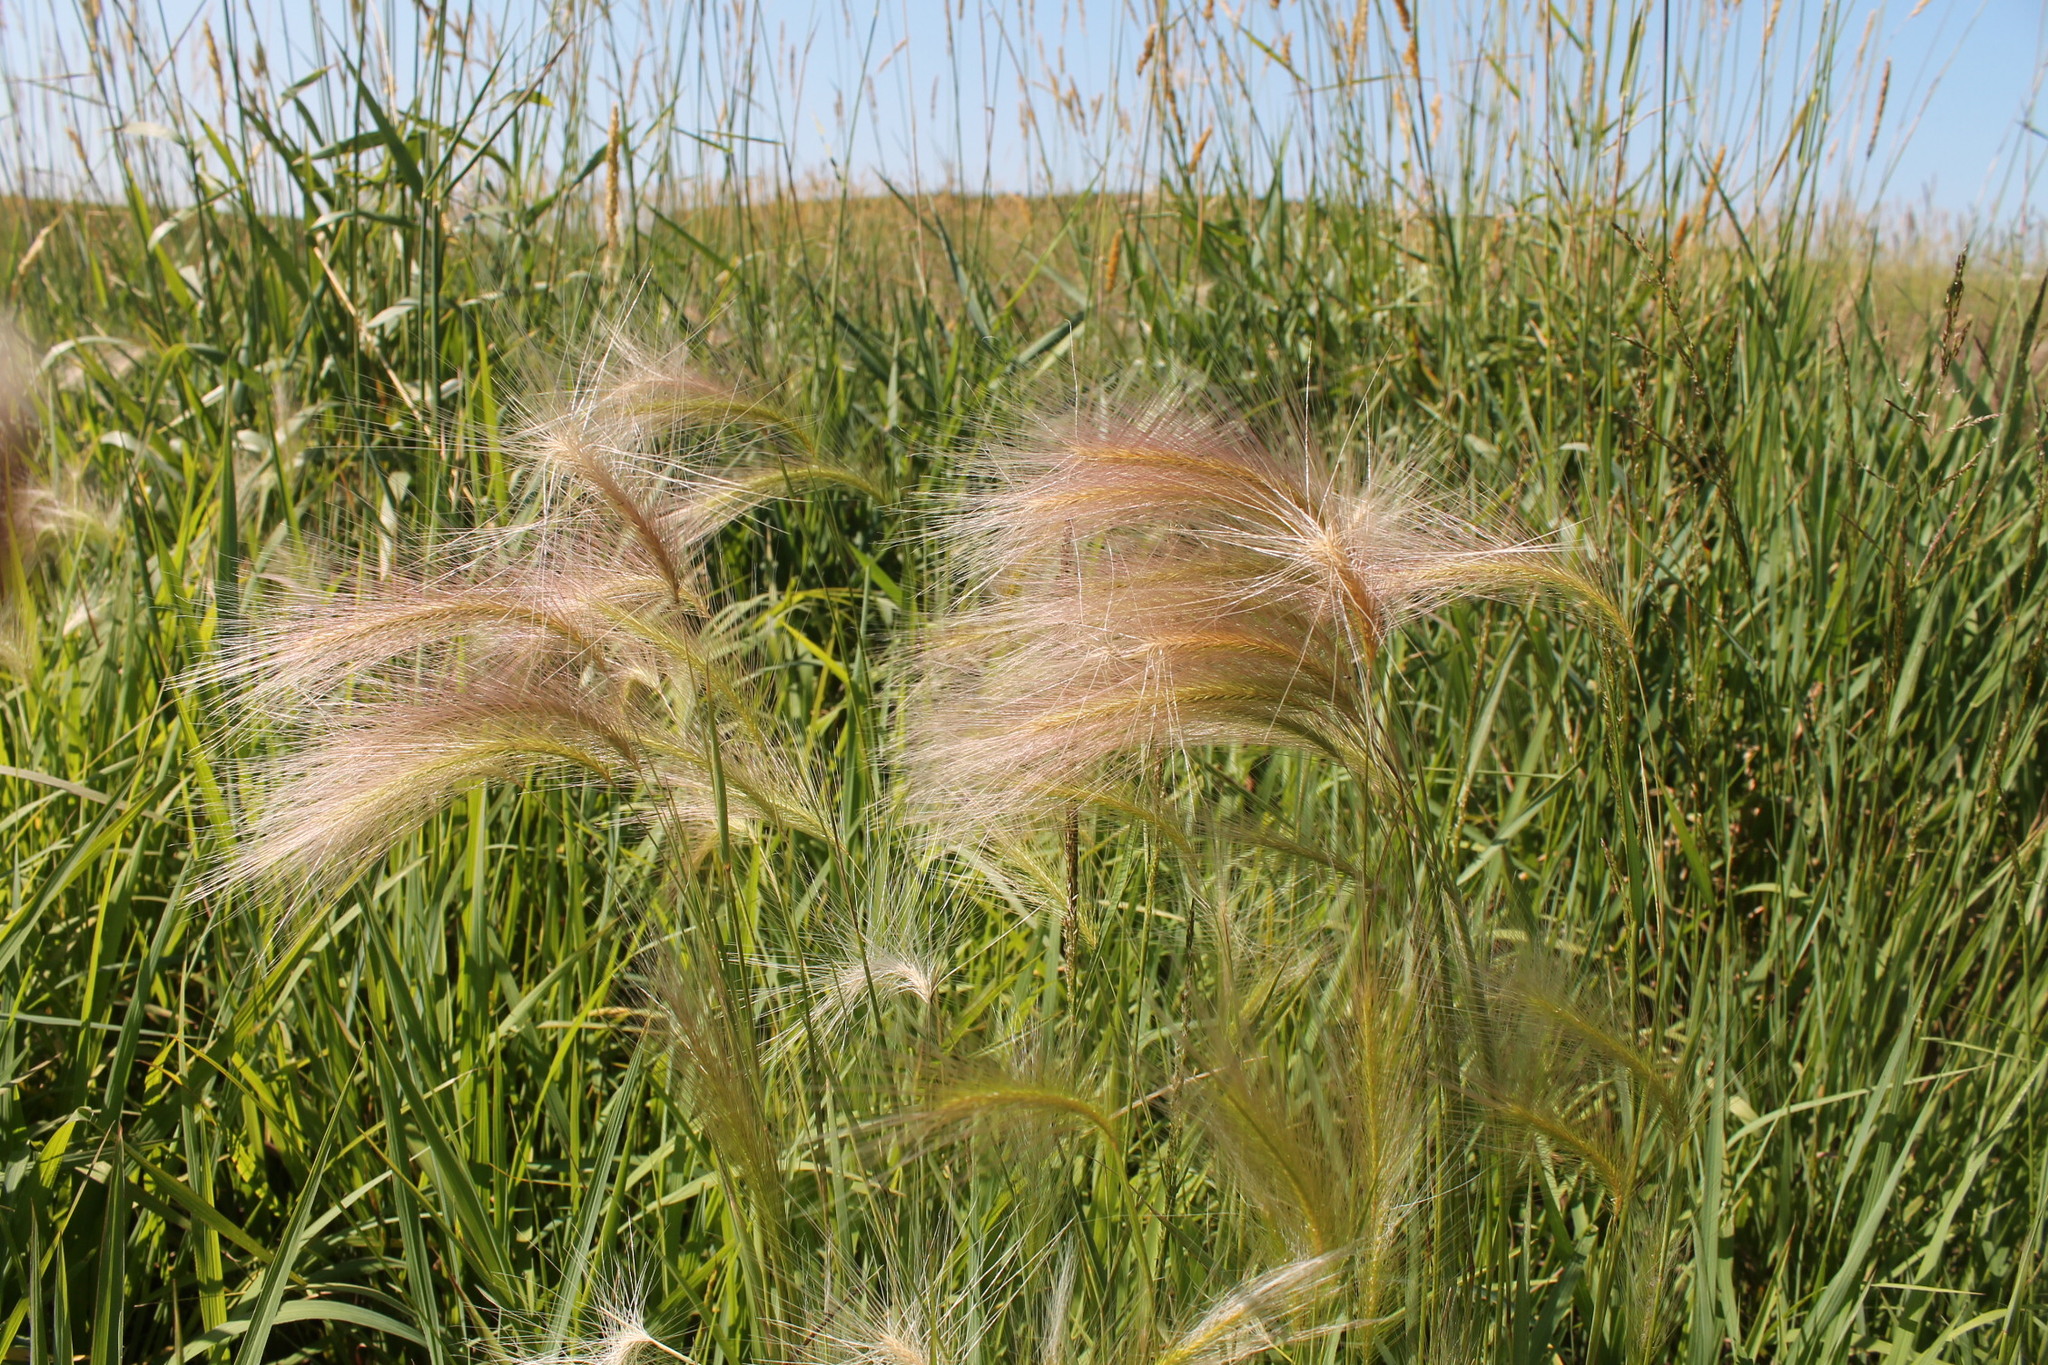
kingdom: Plantae
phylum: Tracheophyta
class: Liliopsida
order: Poales
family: Poaceae
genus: Hordeum
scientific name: Hordeum jubatum
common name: Foxtail barley
